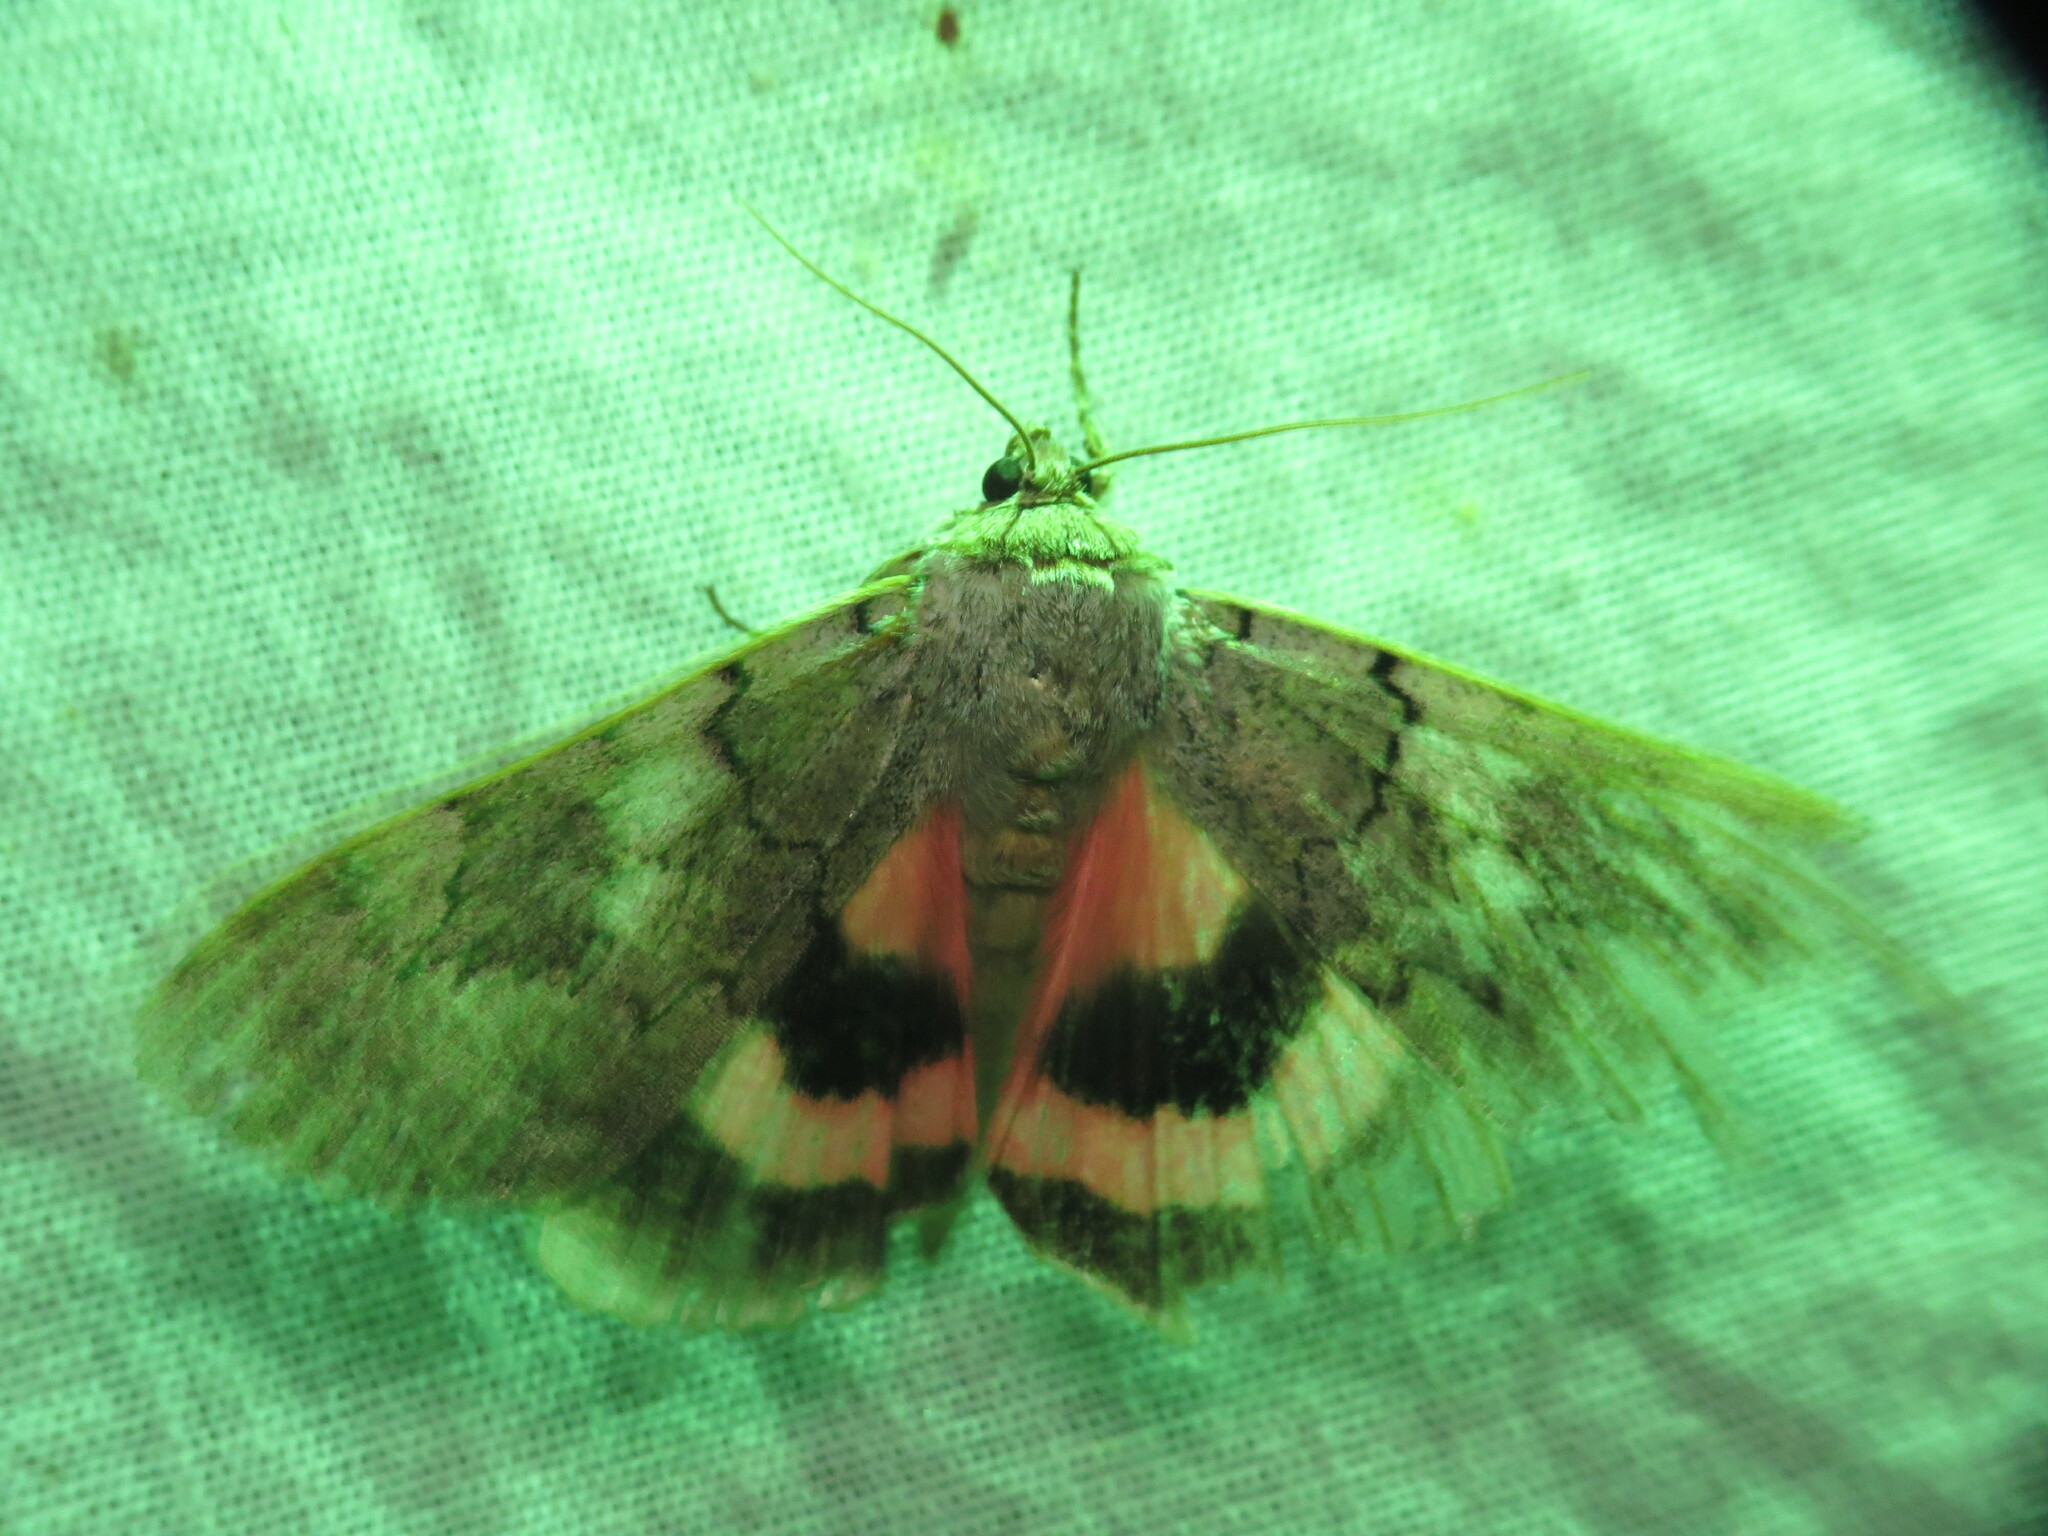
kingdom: Animalia
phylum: Arthropoda
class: Insecta
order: Lepidoptera
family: Erebidae
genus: Catocala
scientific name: Catocala concumbens
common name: Pink underwing
